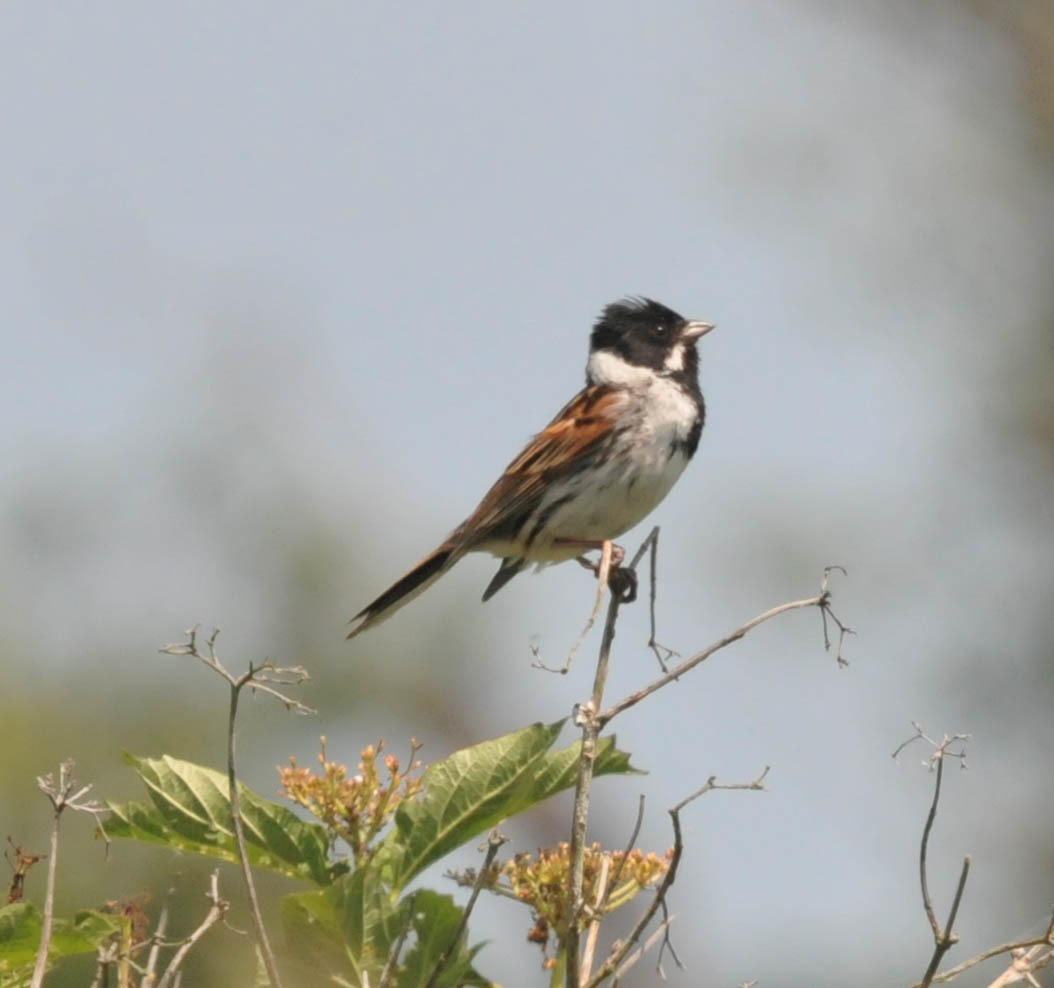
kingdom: Animalia
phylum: Chordata
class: Aves
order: Passeriformes
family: Emberizidae
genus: Emberiza
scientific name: Emberiza schoeniclus
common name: Reed bunting
